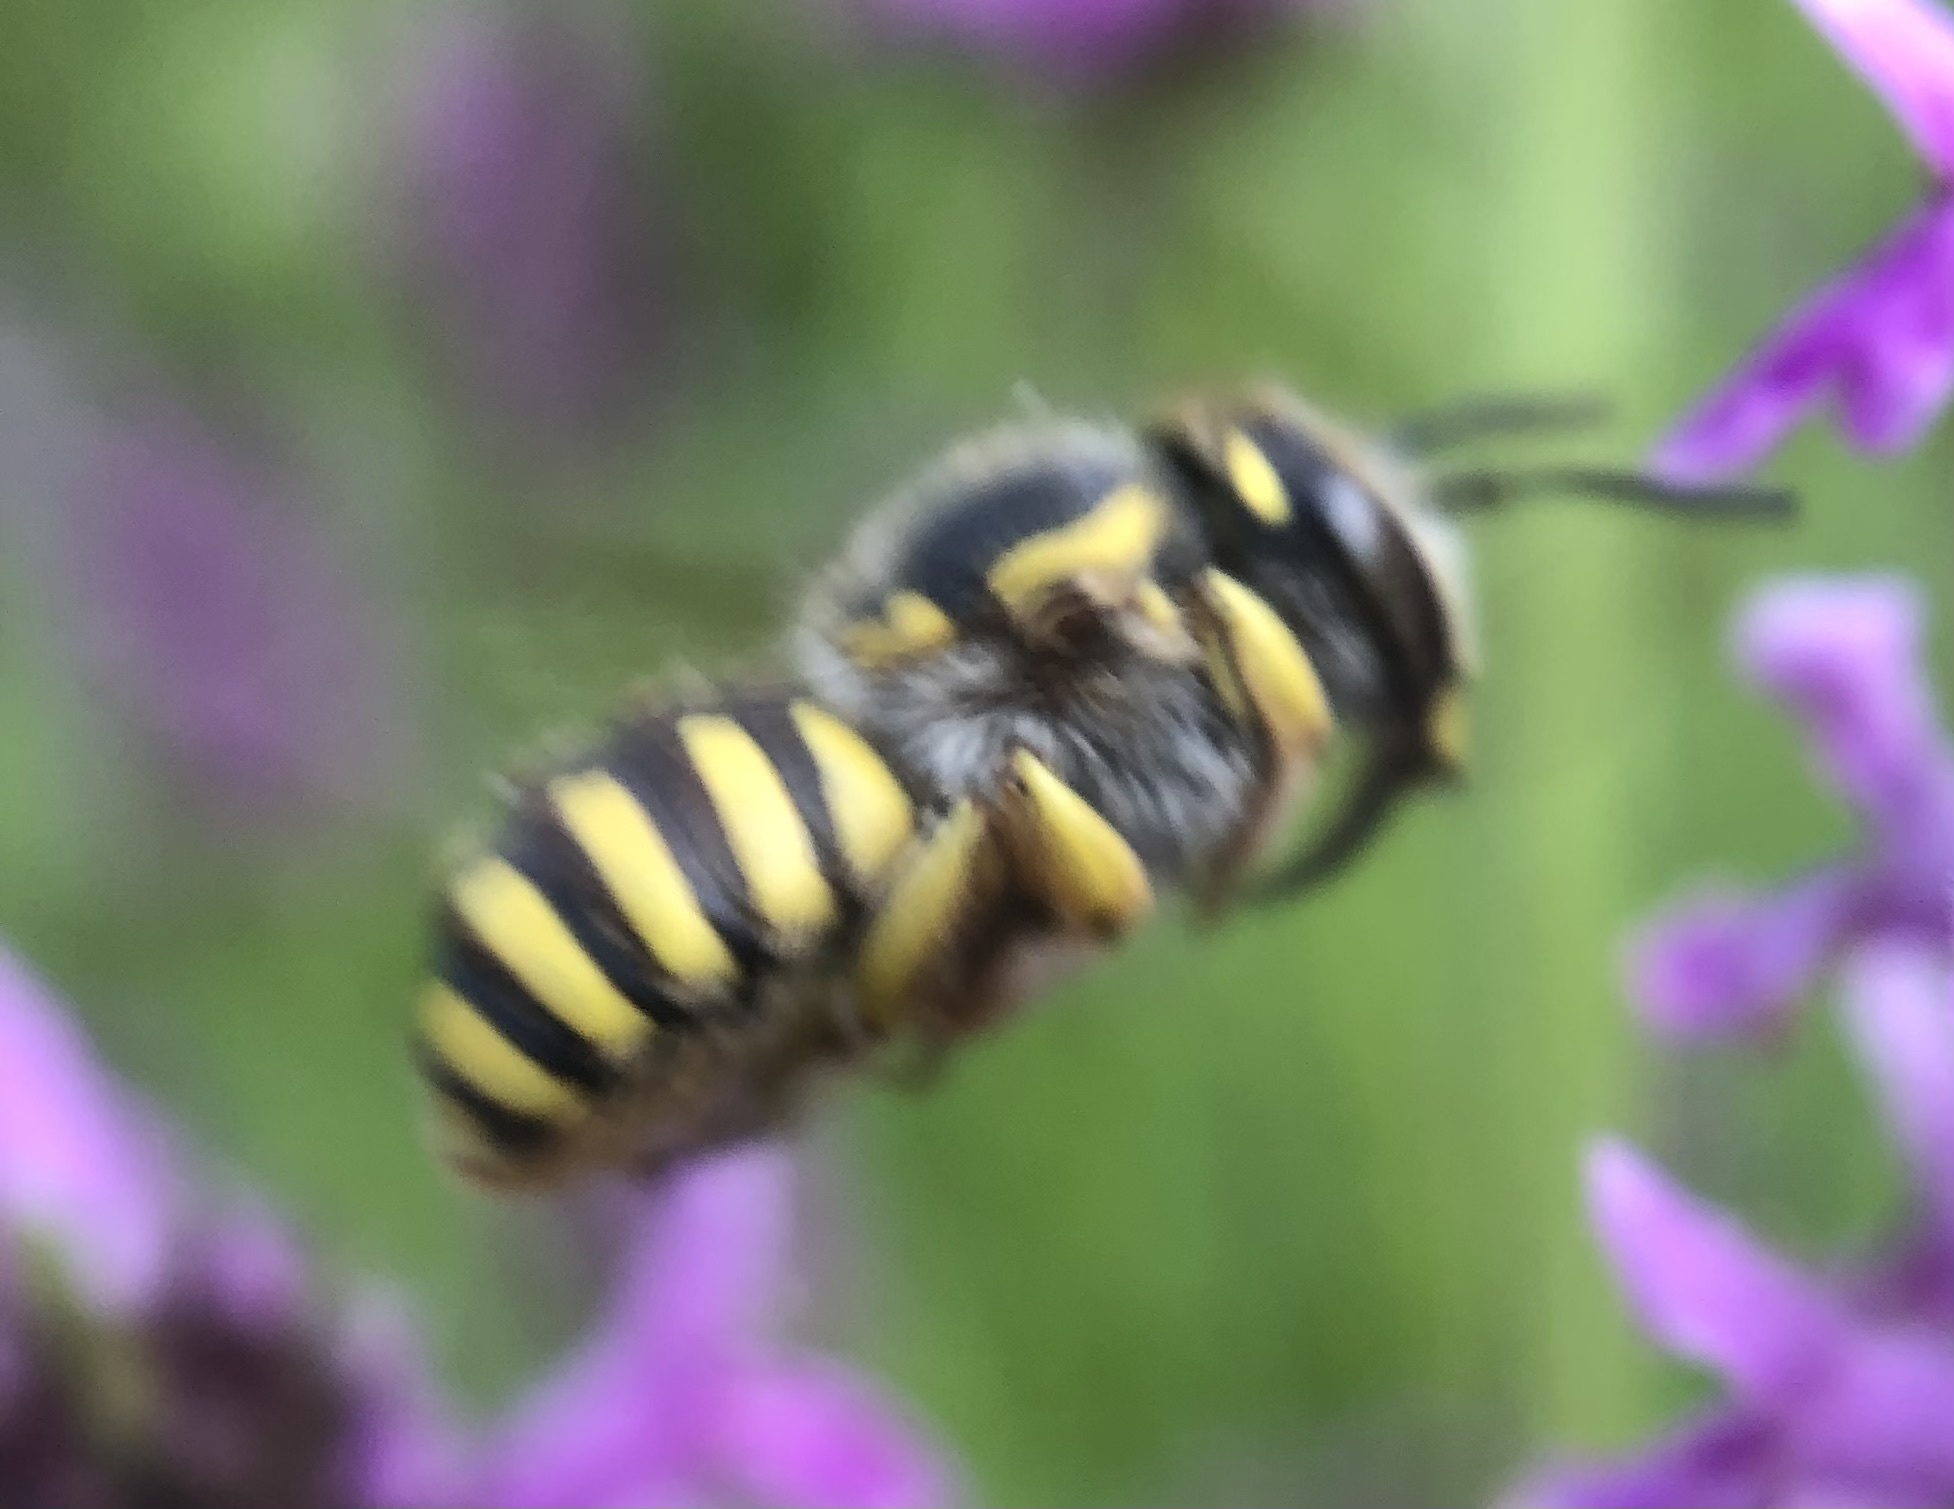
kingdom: Animalia
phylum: Arthropoda
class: Insecta
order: Hymenoptera
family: Megachilidae
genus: Anthidium
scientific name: Anthidium manicatum
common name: Wool carder bee
